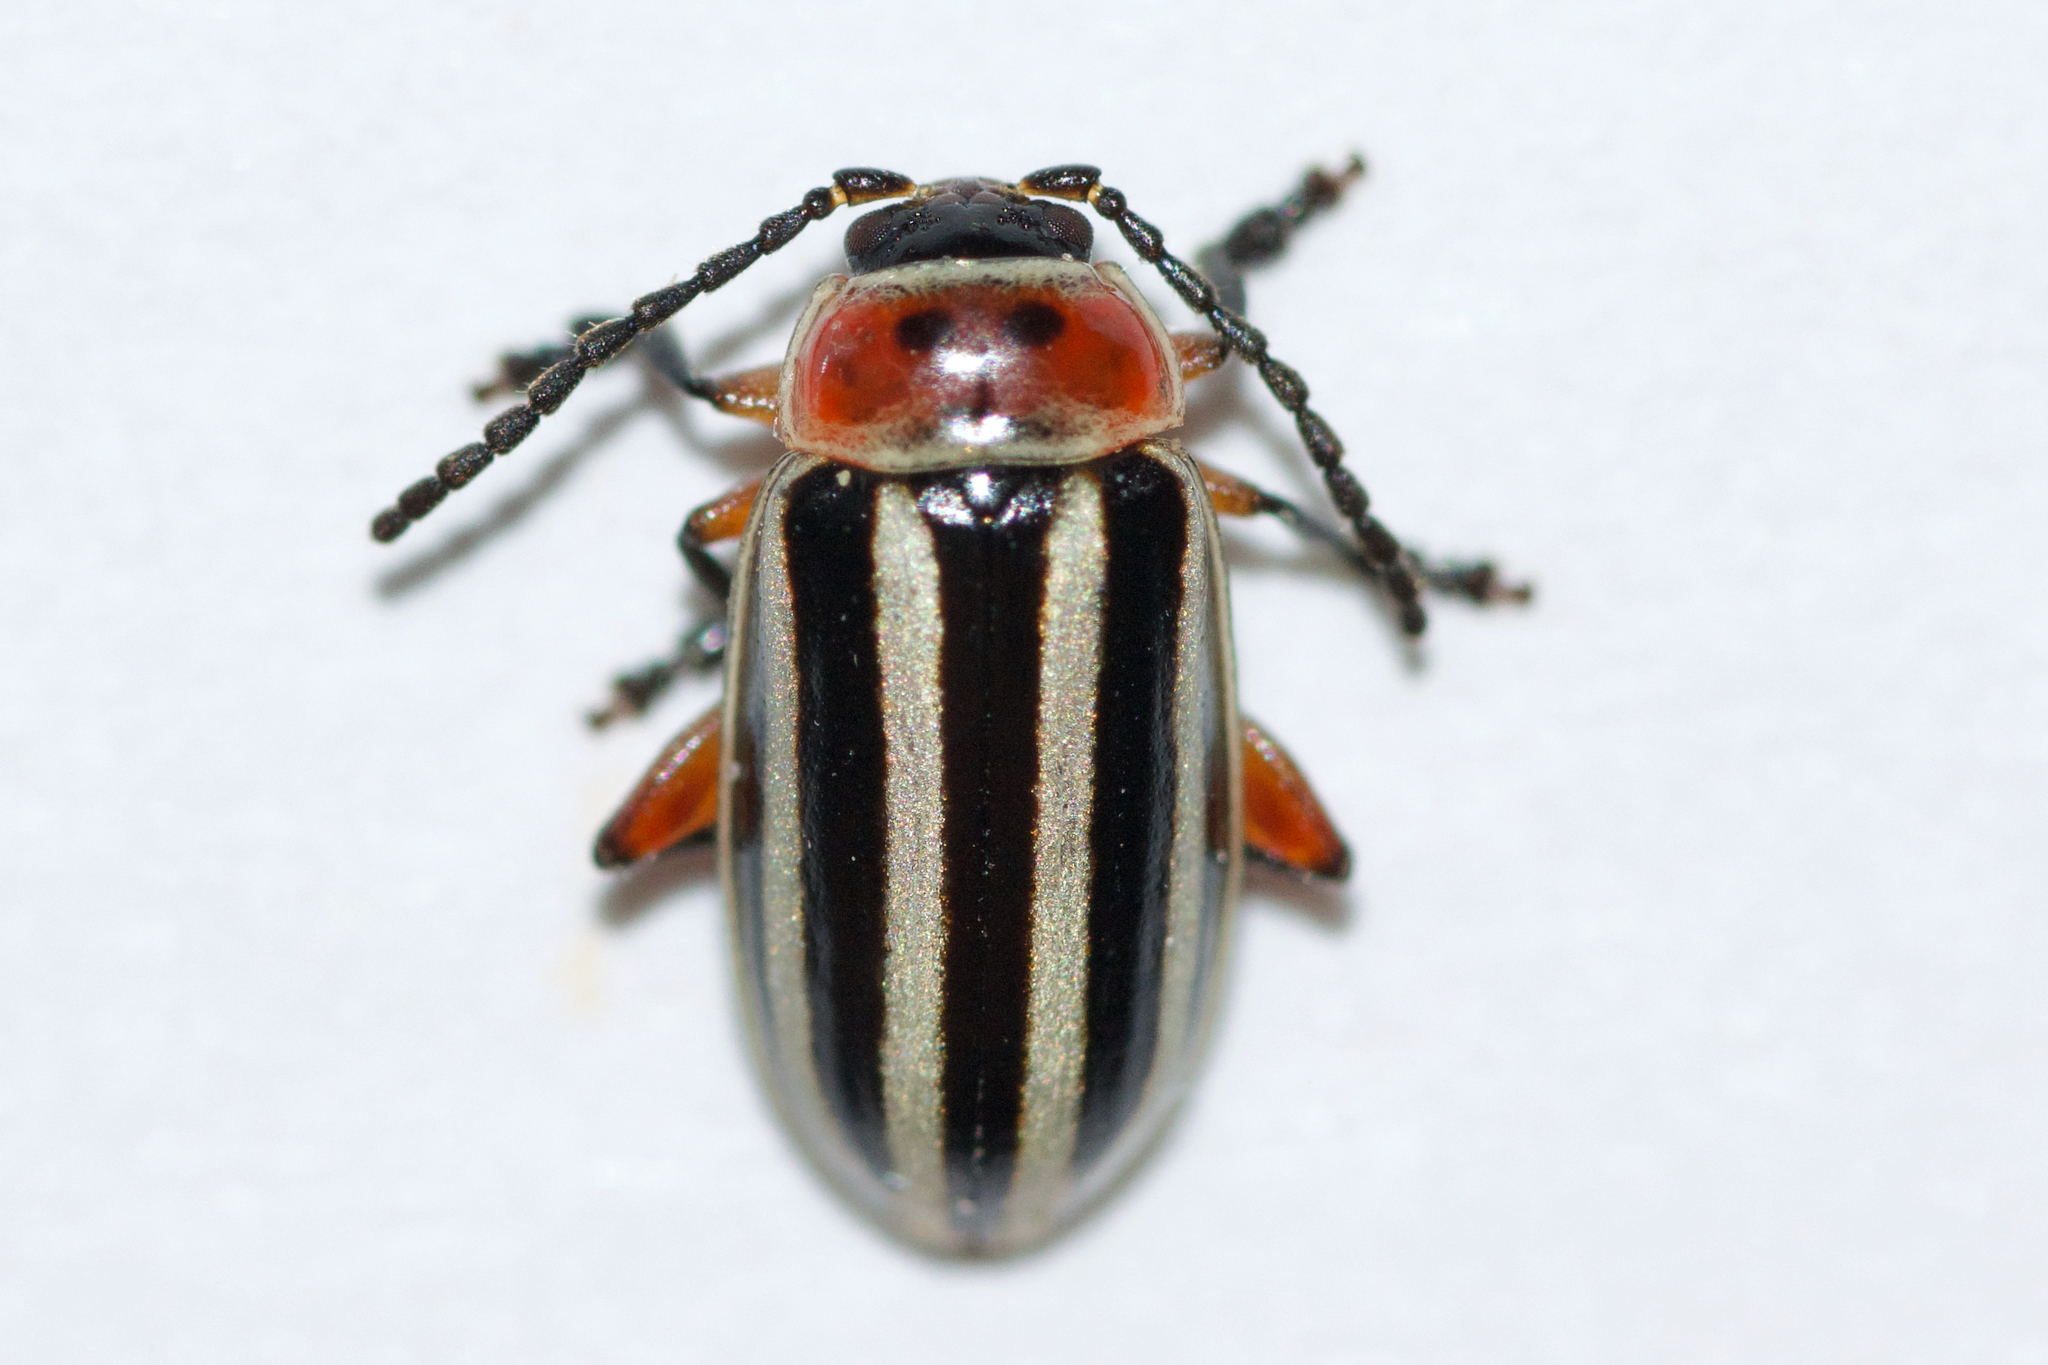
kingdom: Animalia
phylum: Arthropoda
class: Insecta
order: Coleoptera
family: Chrysomelidae
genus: Disonycha
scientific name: Disonycha procera
